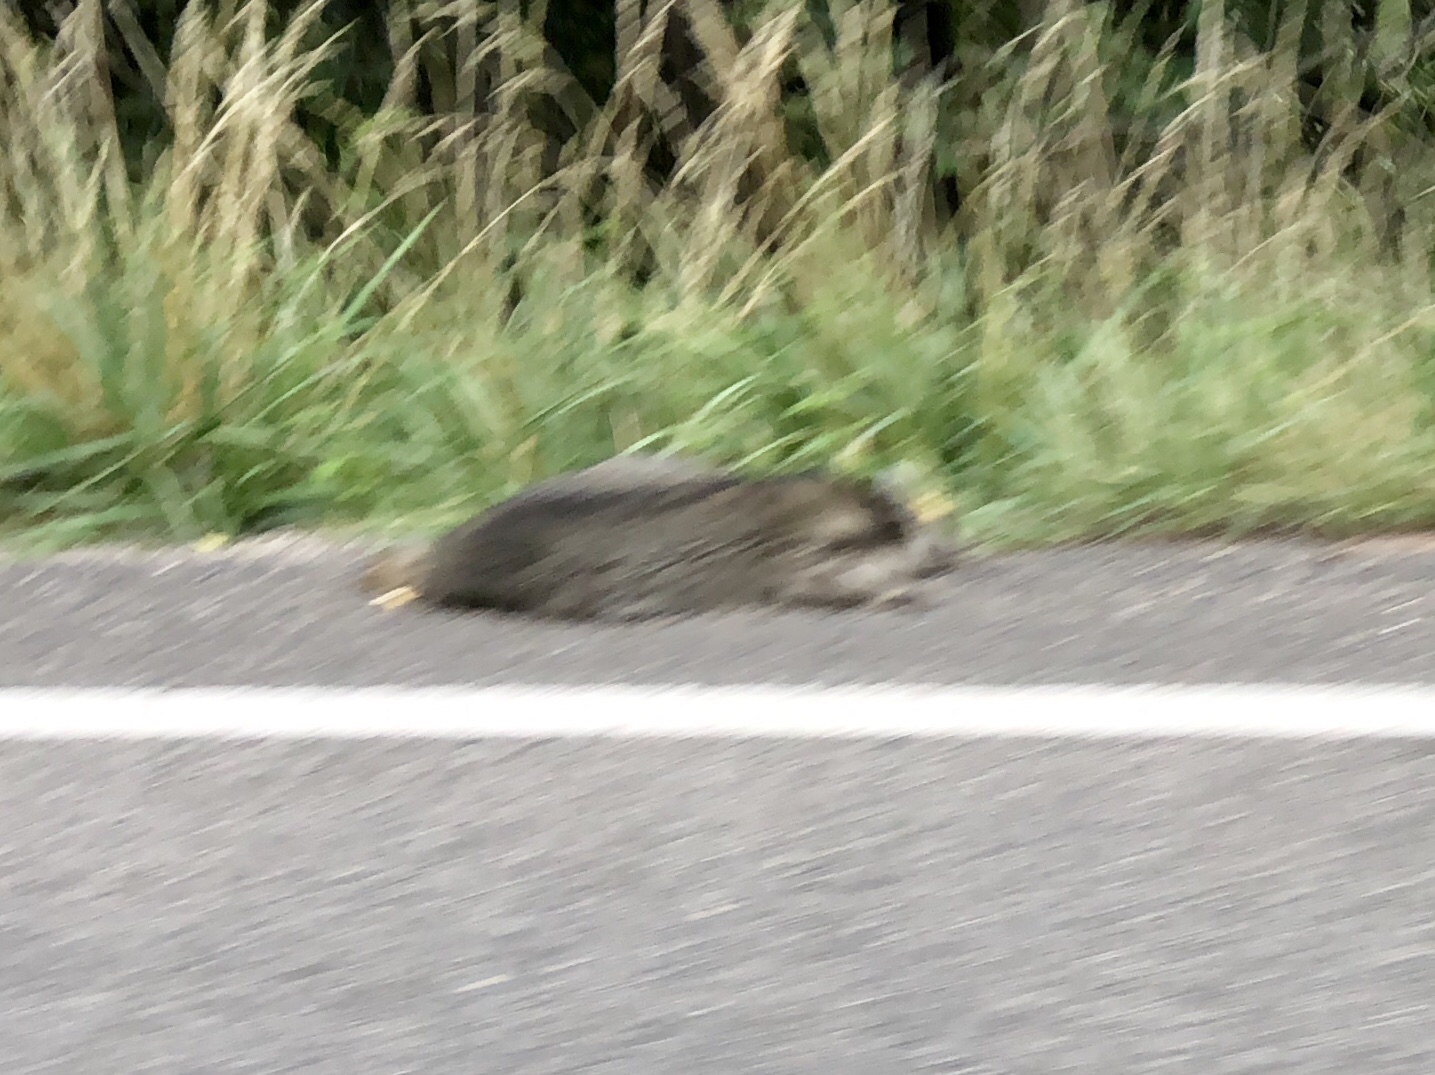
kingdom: Animalia
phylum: Chordata
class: Mammalia
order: Carnivora
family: Procyonidae
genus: Procyon
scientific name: Procyon lotor
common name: Raccoon
